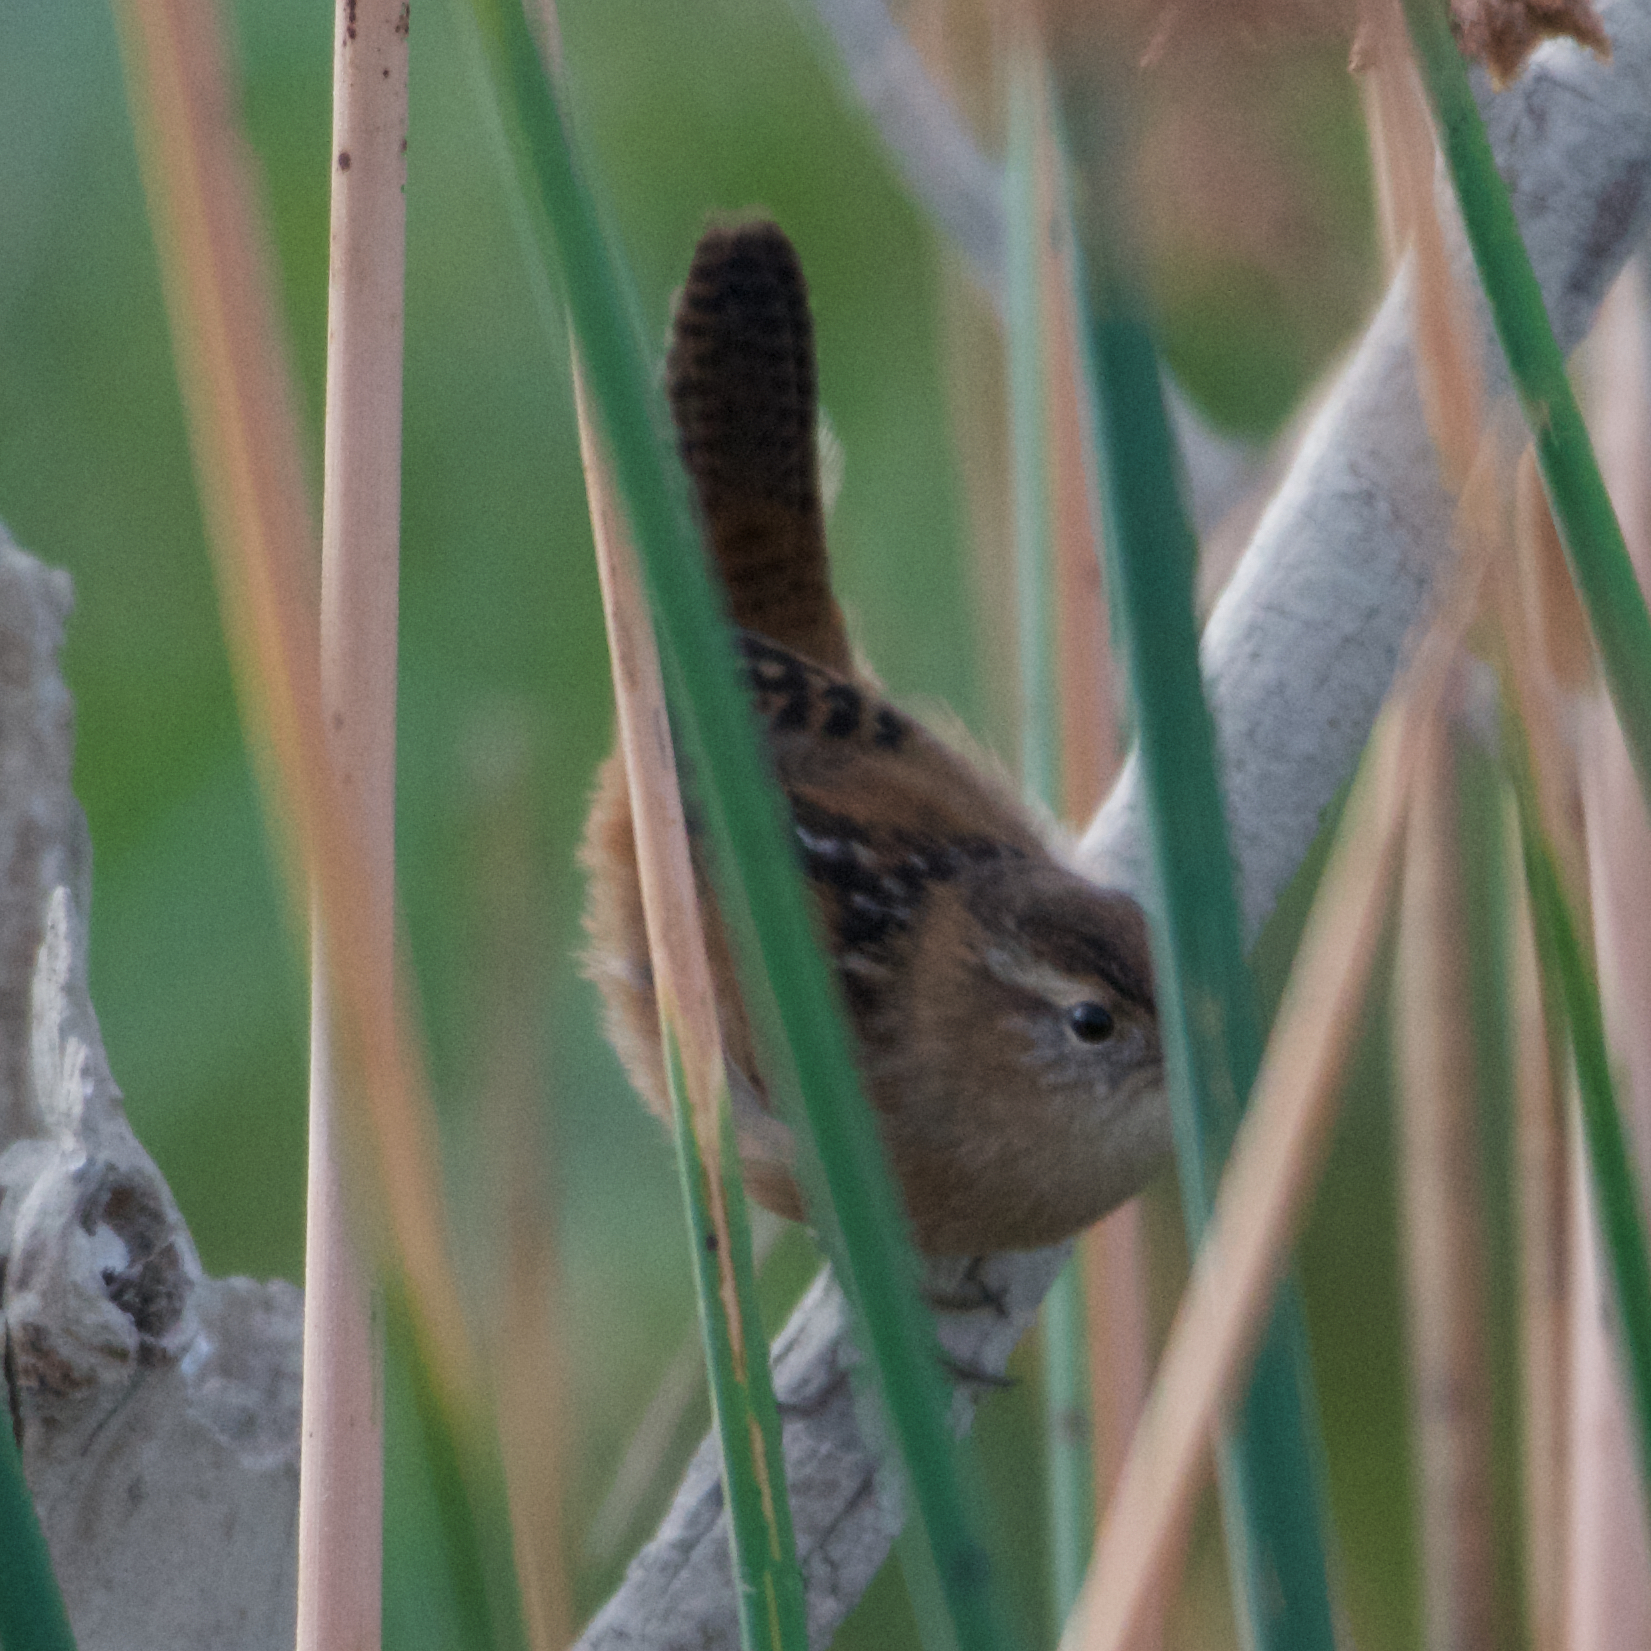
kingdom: Animalia
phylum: Chordata
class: Aves
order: Passeriformes
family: Troglodytidae
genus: Cistothorus
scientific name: Cistothorus palustris
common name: Marsh wren
